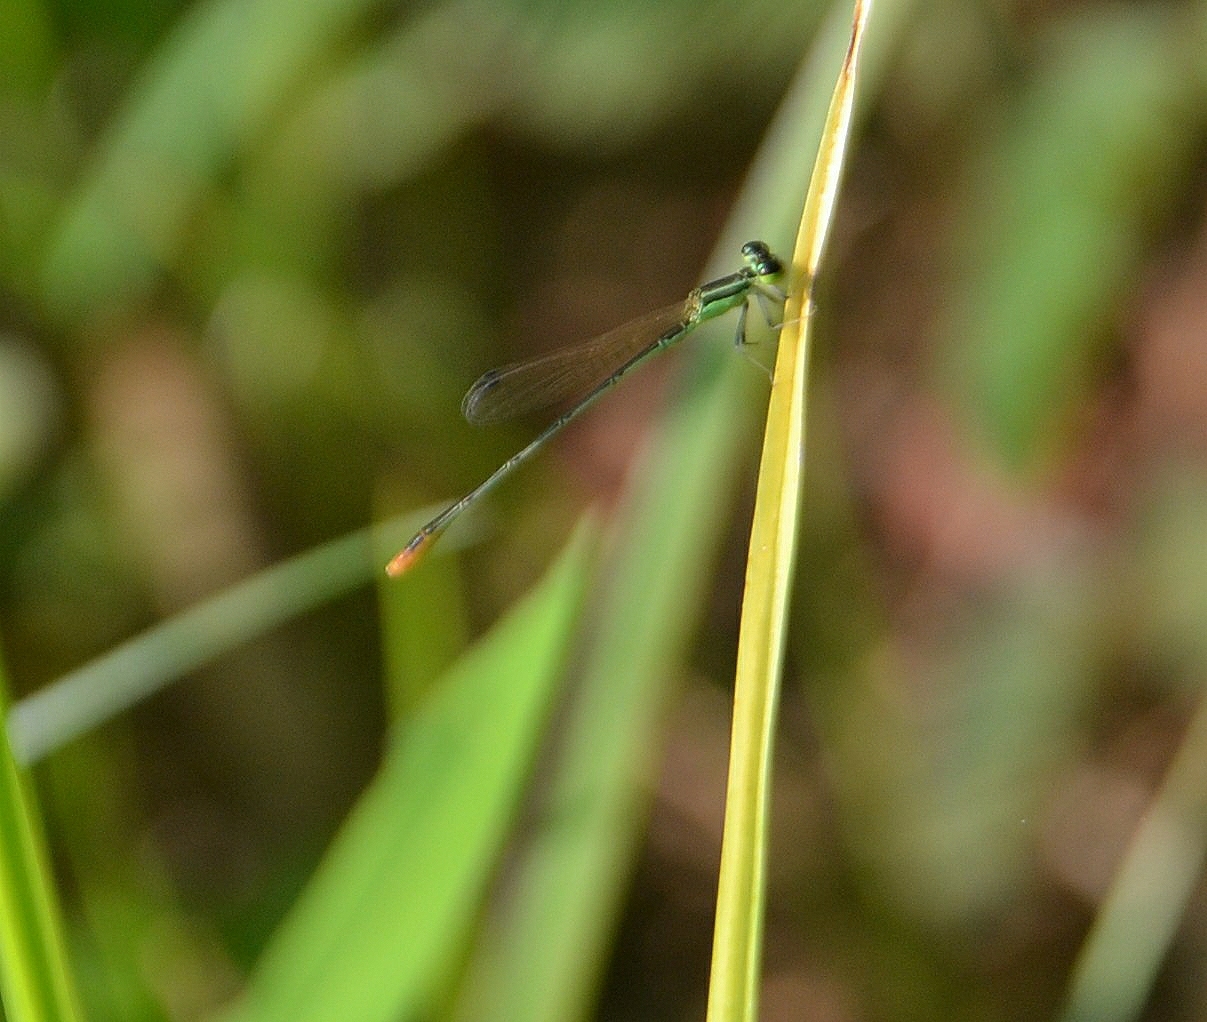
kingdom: Animalia
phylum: Arthropoda
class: Insecta
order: Odonata
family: Coenagrionidae
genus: Agriocnemis
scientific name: Agriocnemis pygmaea
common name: Pygmy wisp
